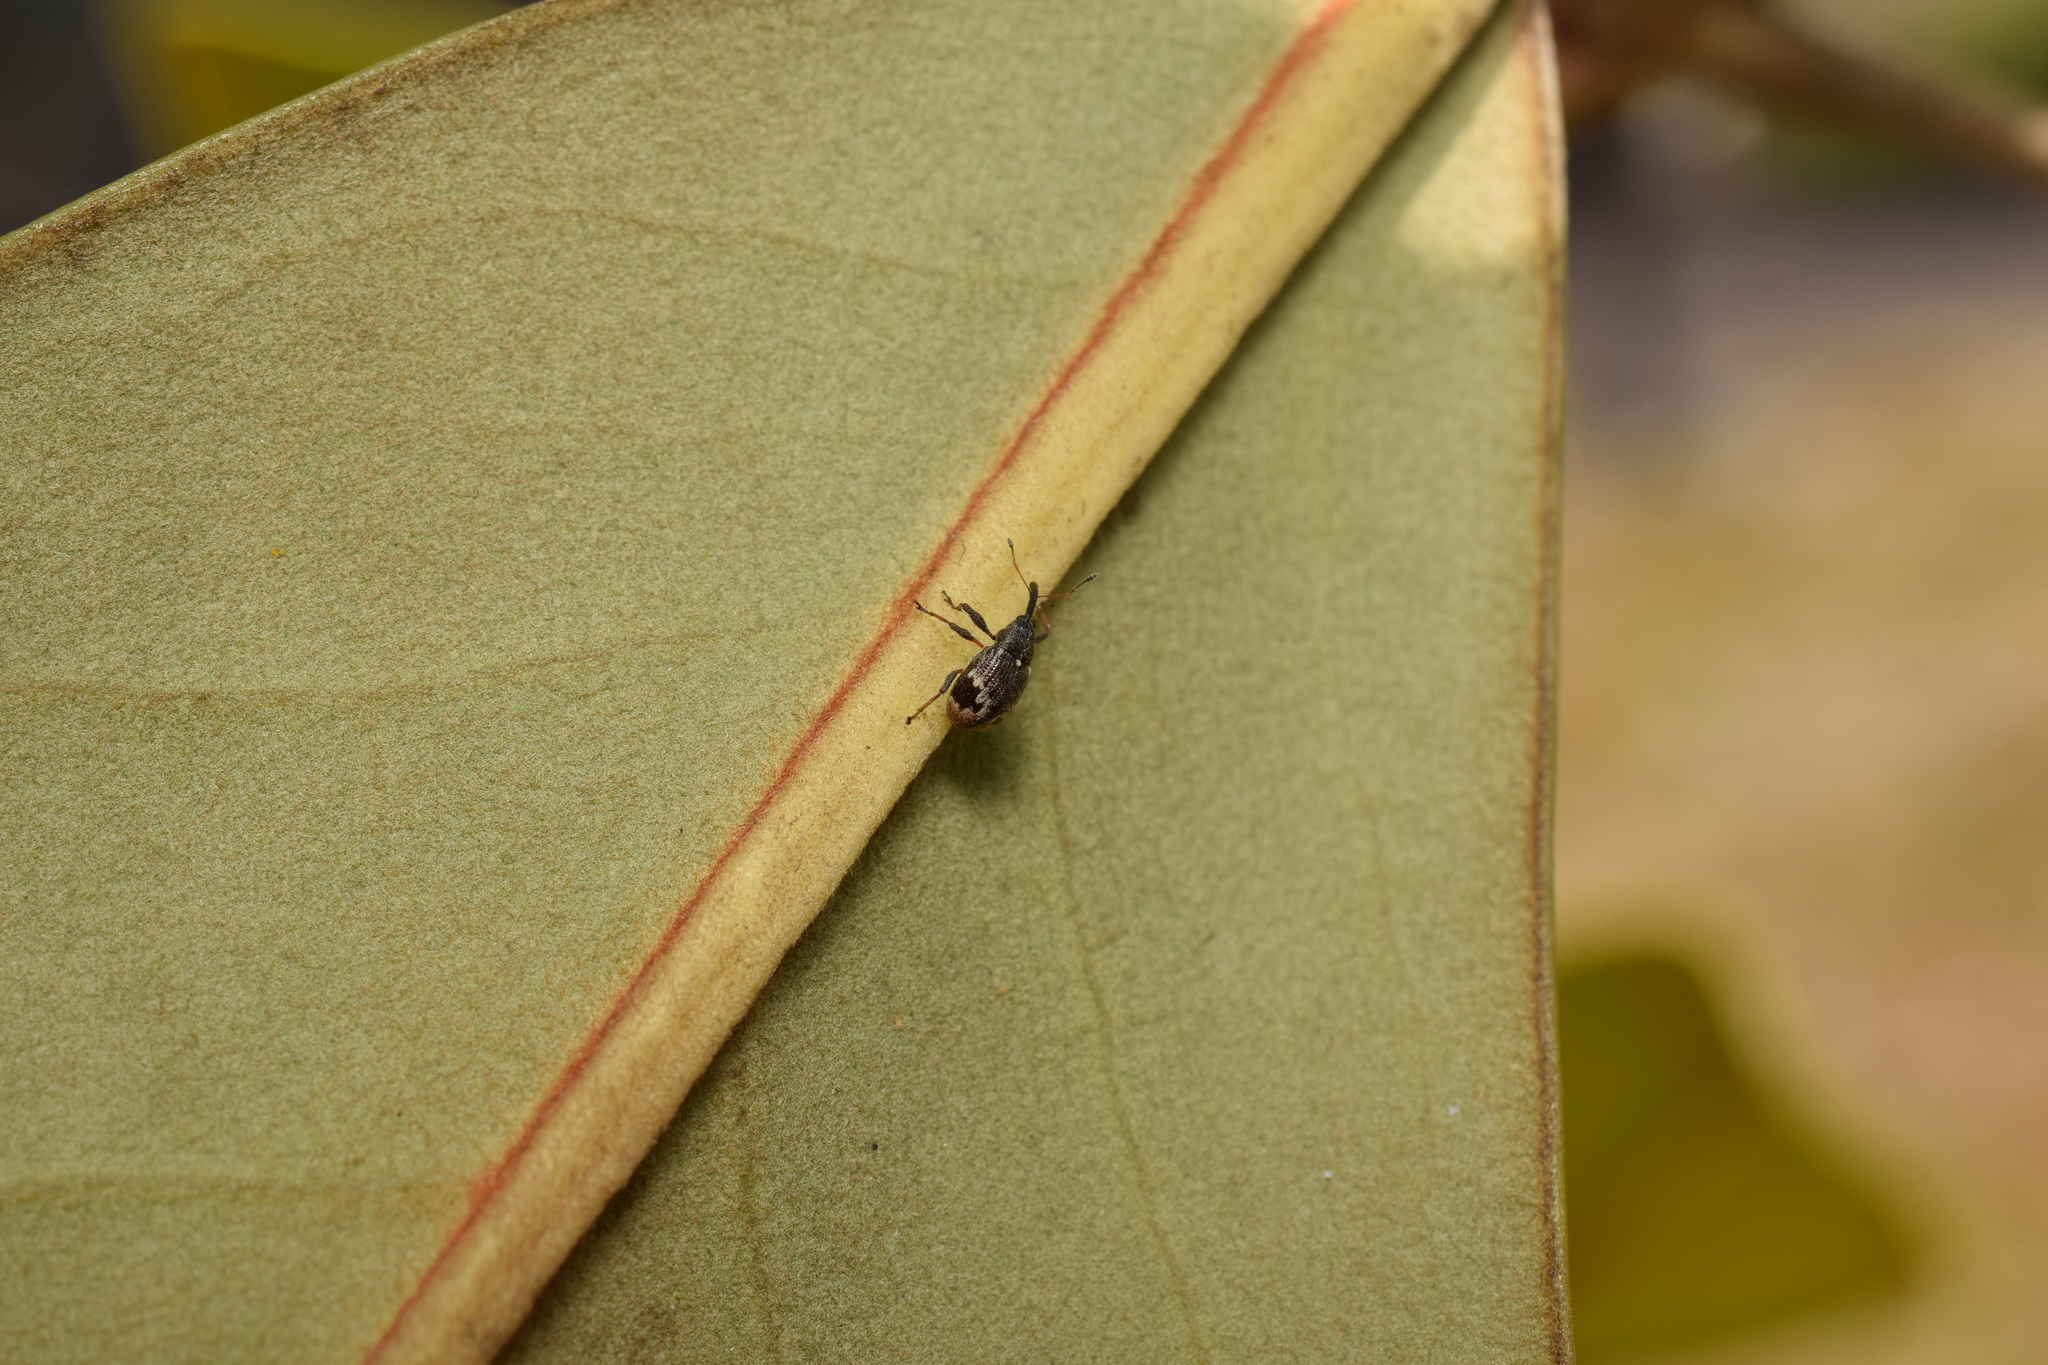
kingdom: Animalia
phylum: Arthropoda
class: Insecta
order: Coleoptera
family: Curculionidae
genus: Anthonomus
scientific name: Anthonomus bisignifer
